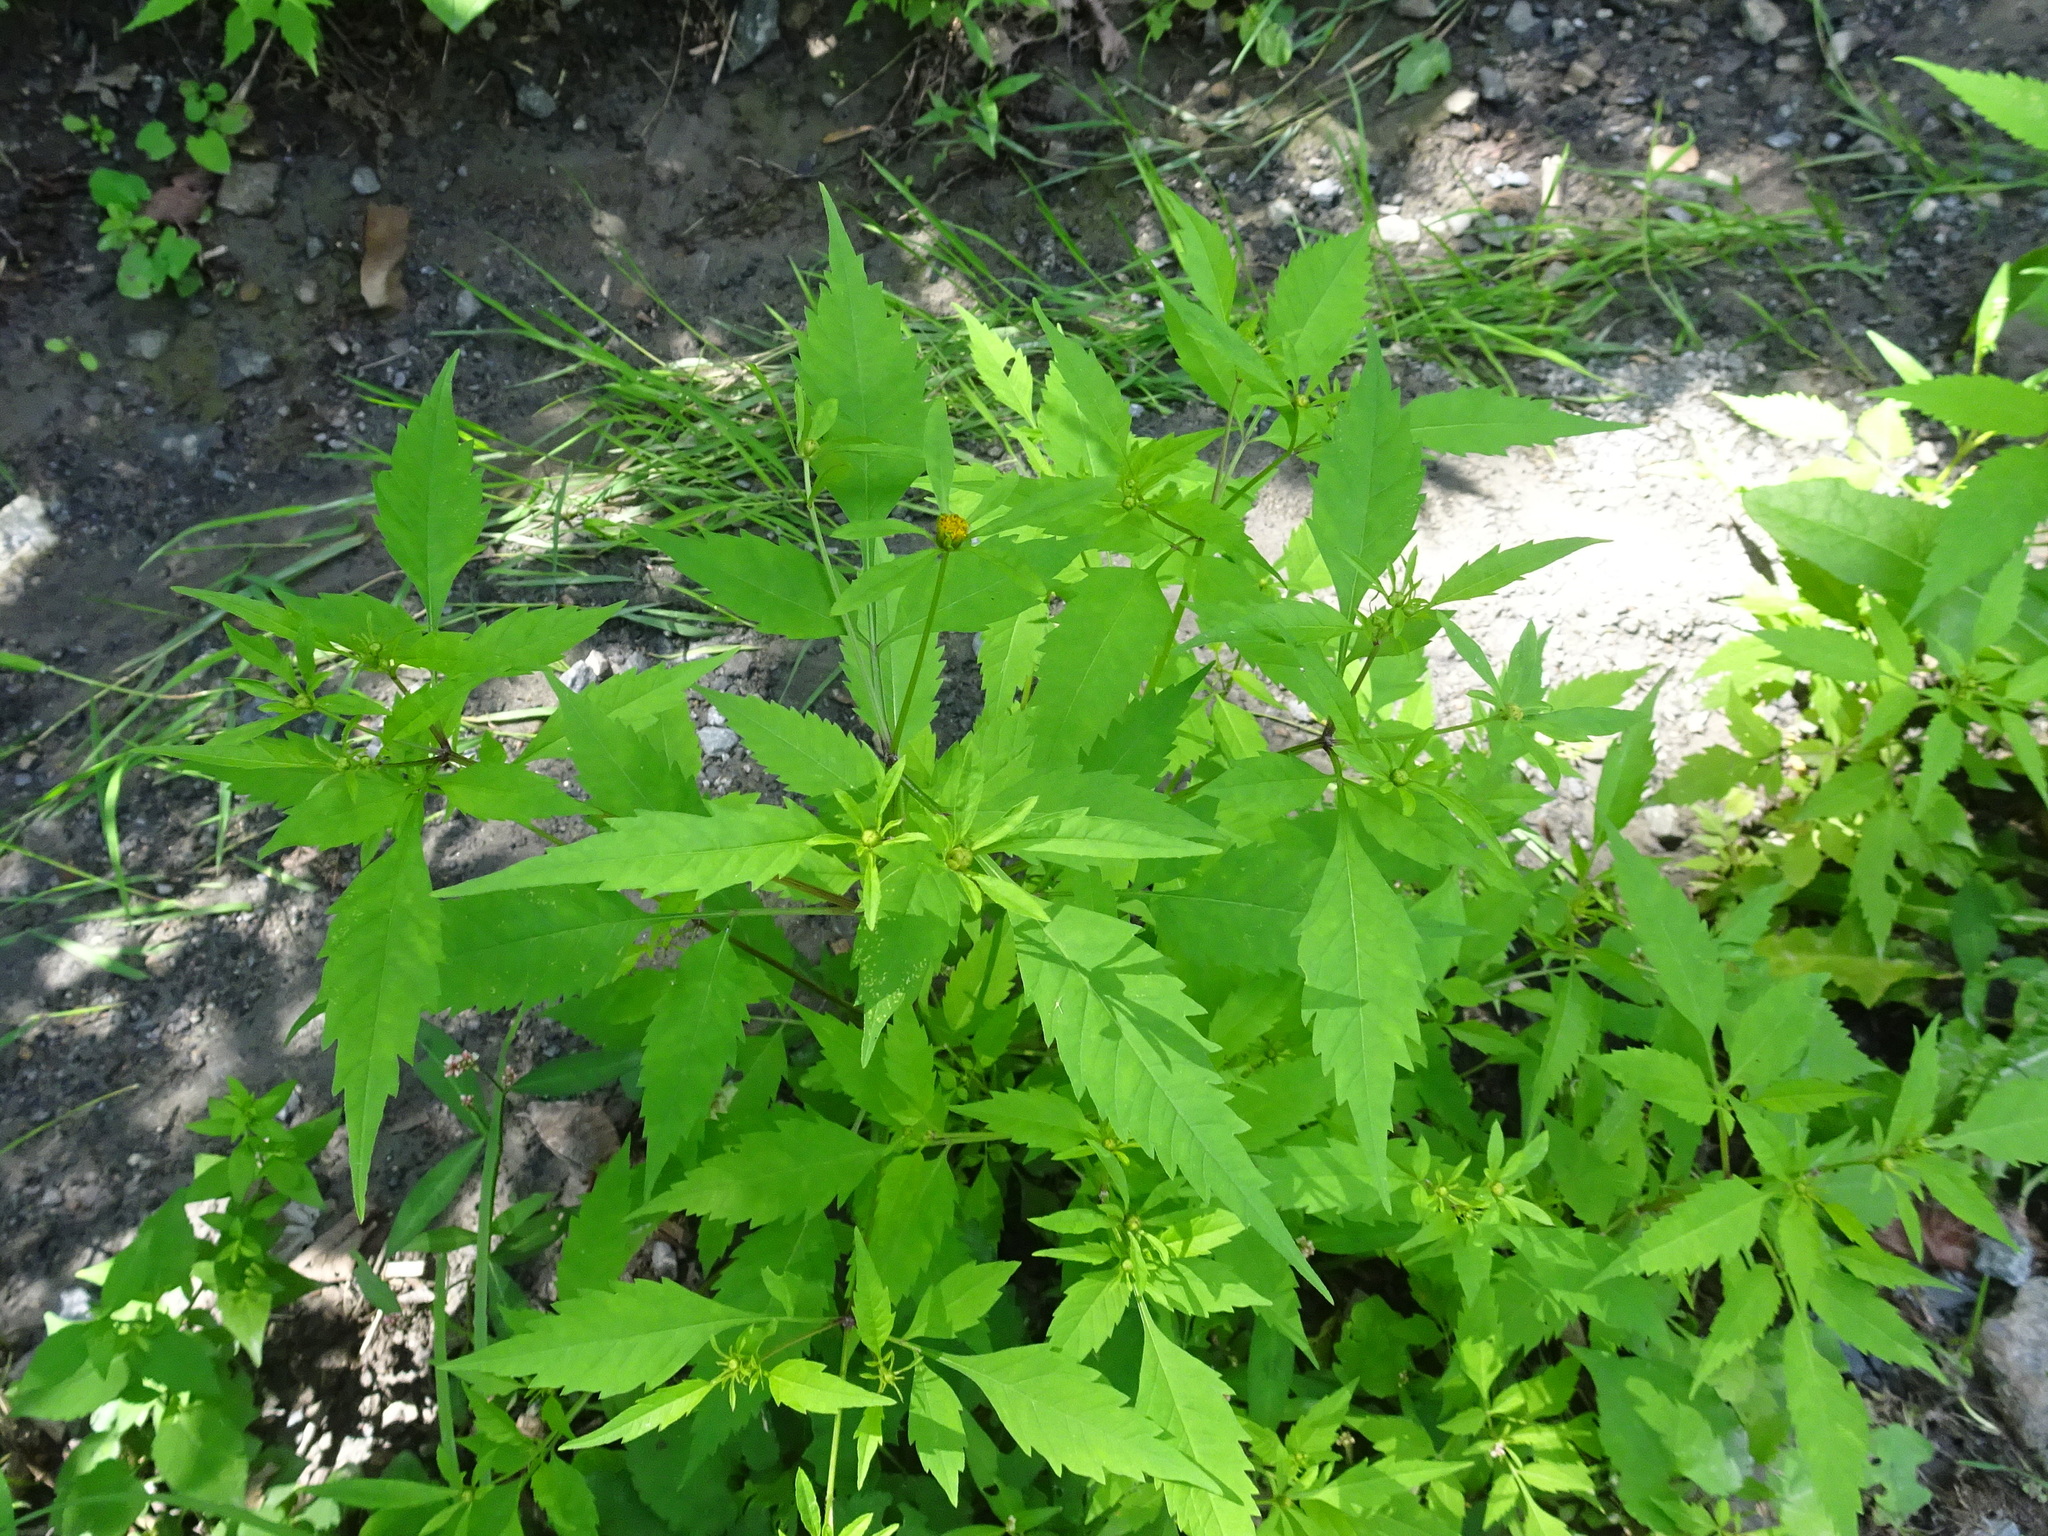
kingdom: Plantae
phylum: Tracheophyta
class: Magnoliopsida
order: Asterales
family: Asteraceae
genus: Bidens
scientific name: Bidens frondosa
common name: Beggarticks
